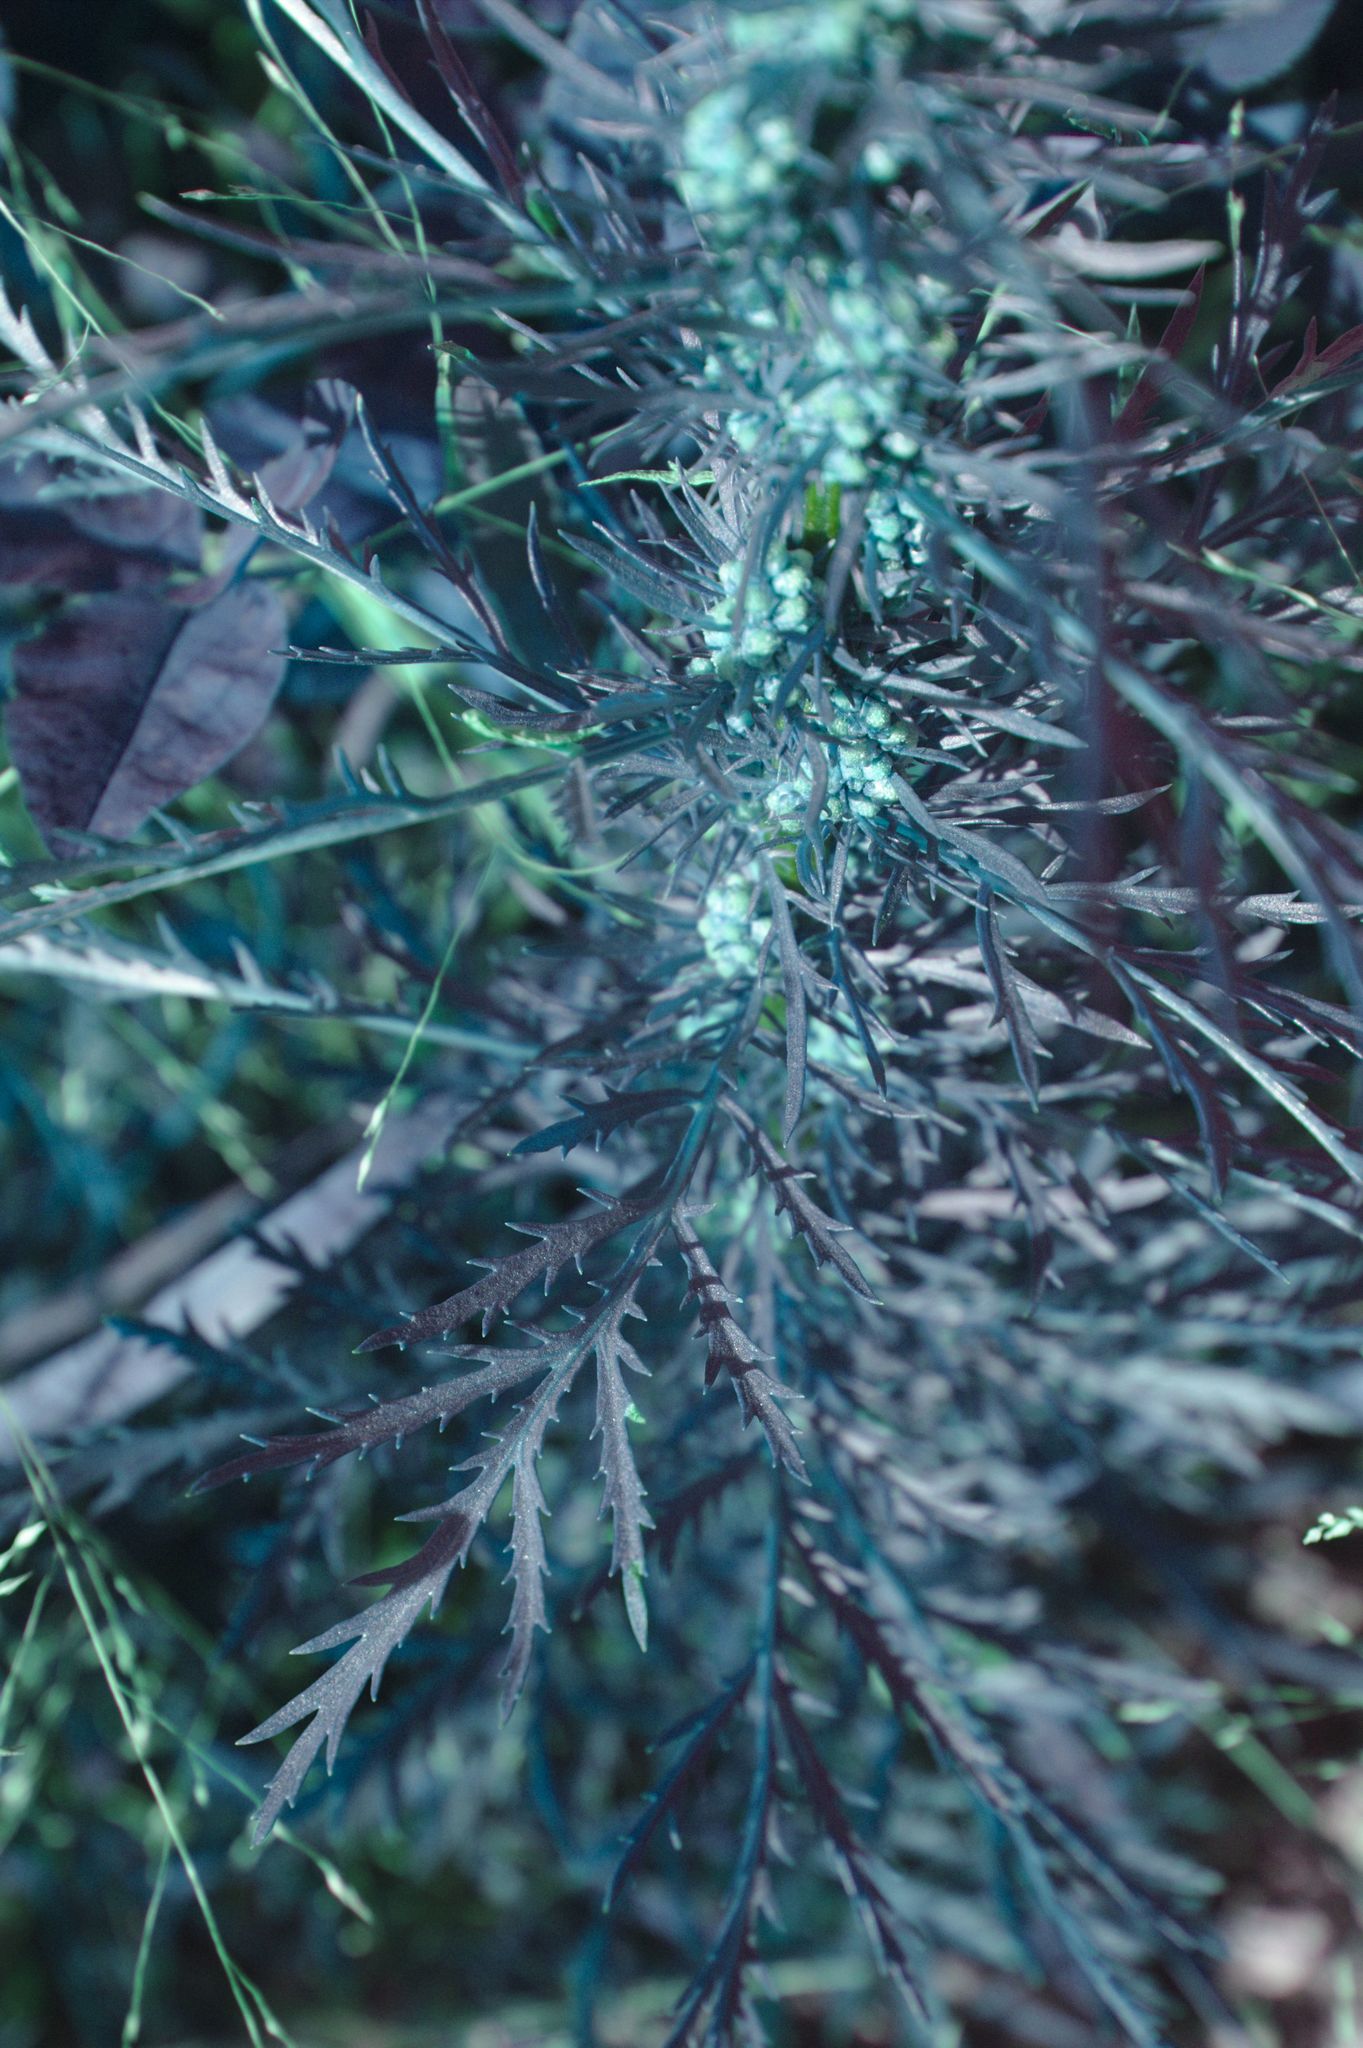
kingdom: Plantae
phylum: Tracheophyta
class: Magnoliopsida
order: Asterales
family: Asteraceae
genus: Artemisia
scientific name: Artemisia biennis
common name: Biennial wormwood
